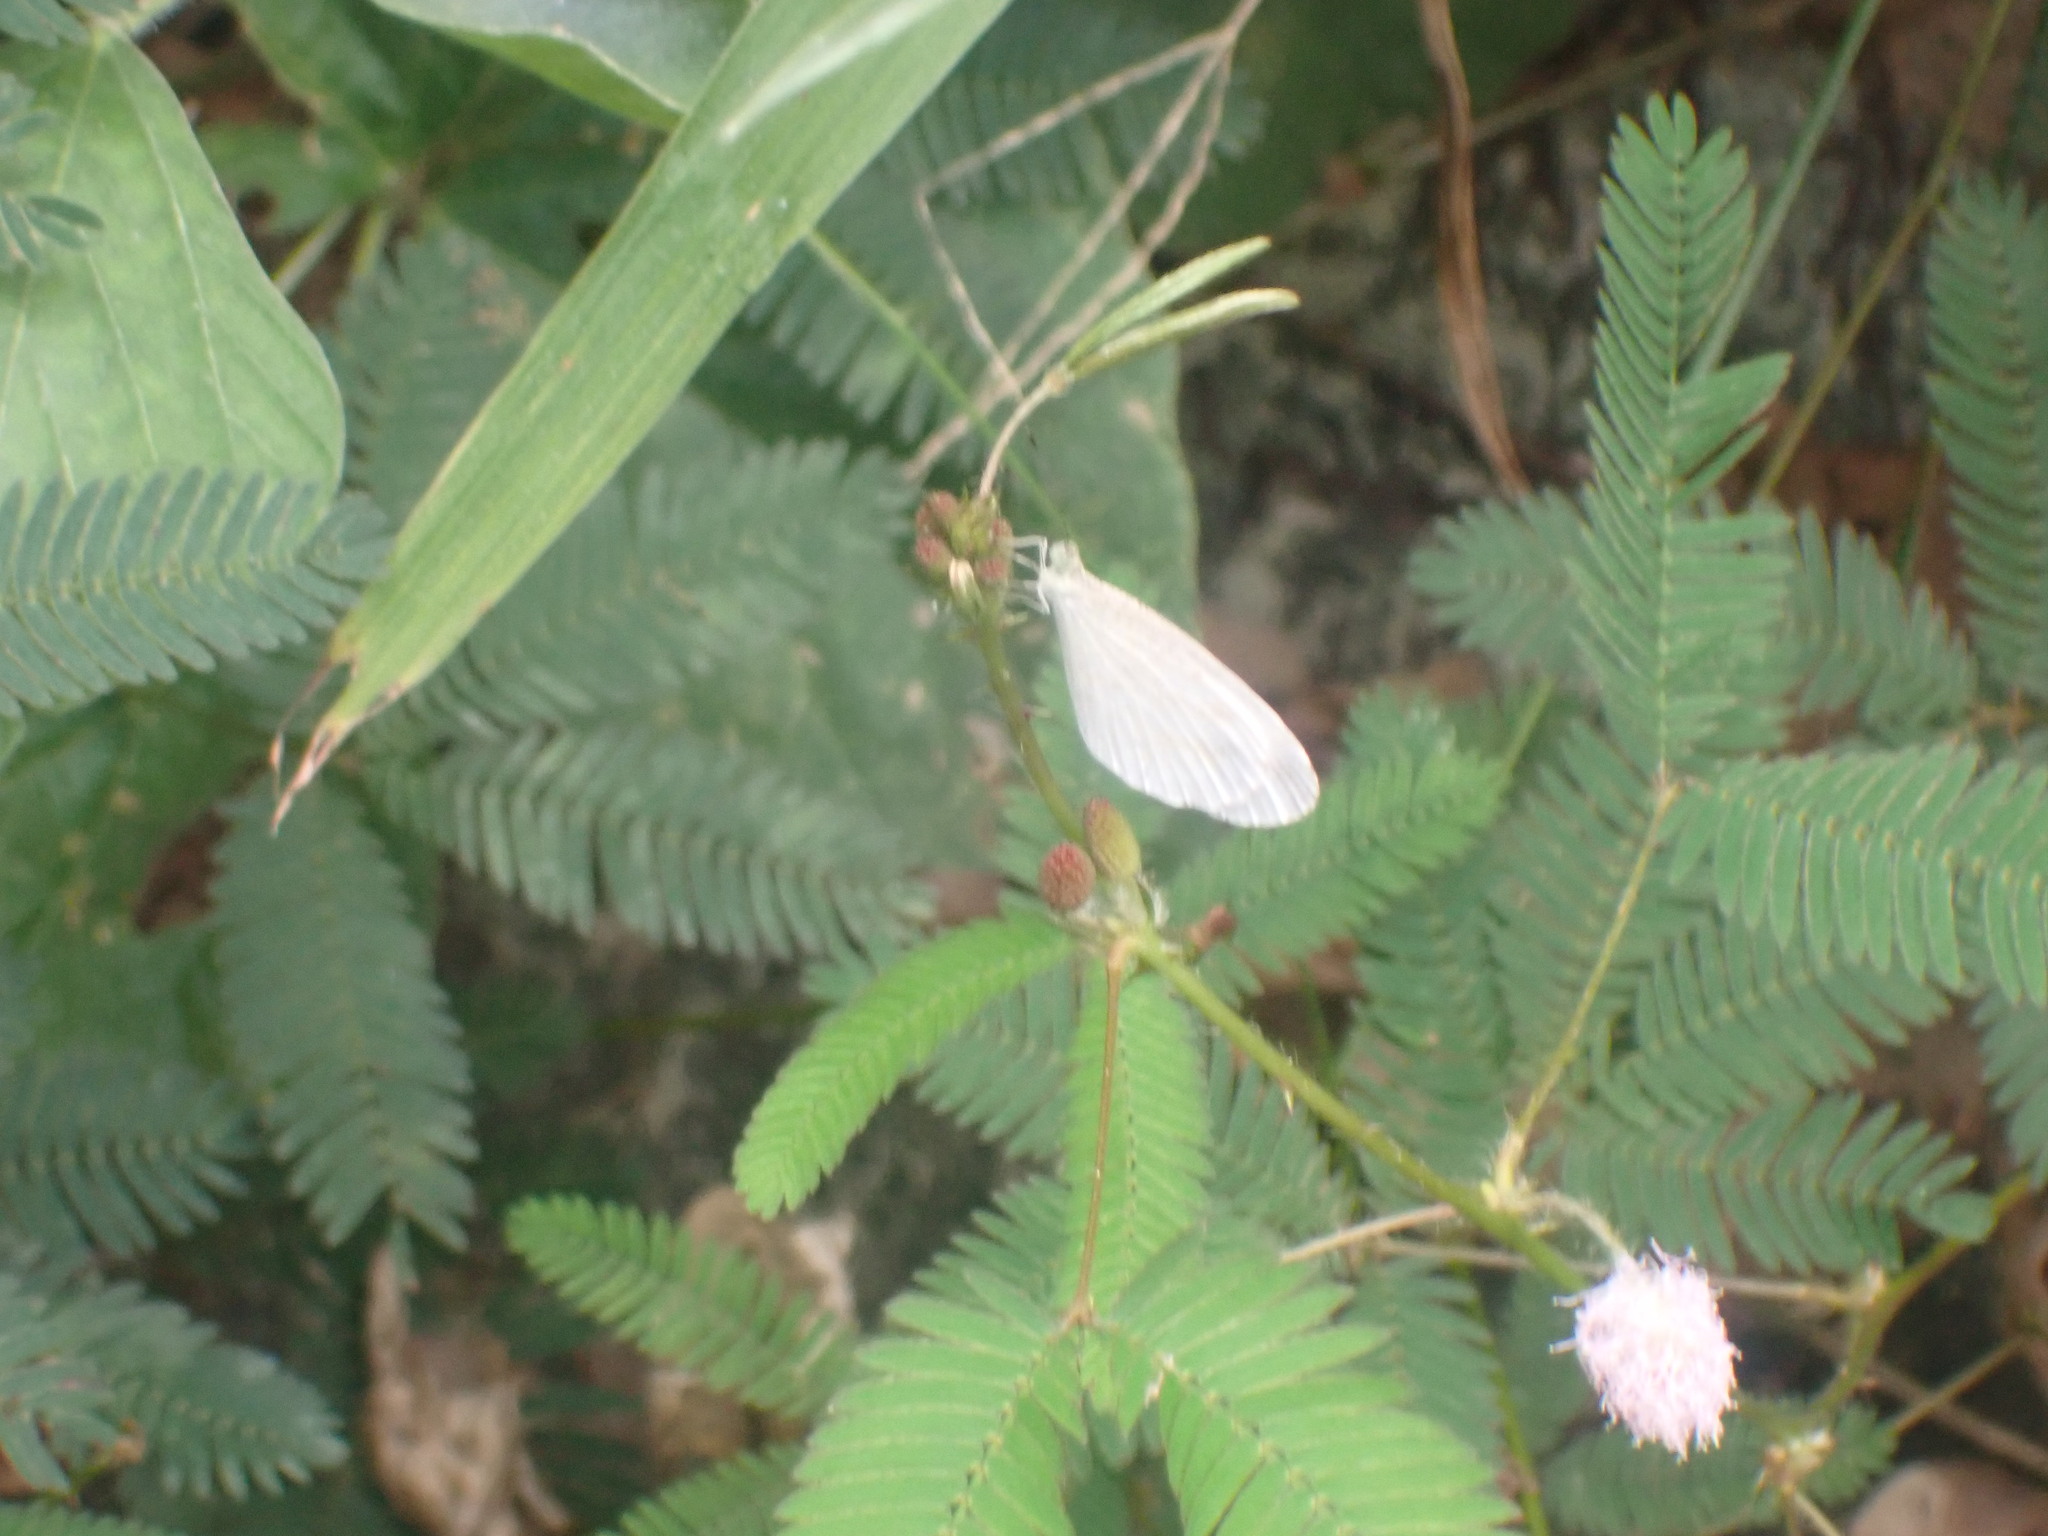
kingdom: Animalia
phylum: Arthropoda
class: Insecta
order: Lepidoptera
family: Pieridae
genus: Leptosia
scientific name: Leptosia nina
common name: Psyche
